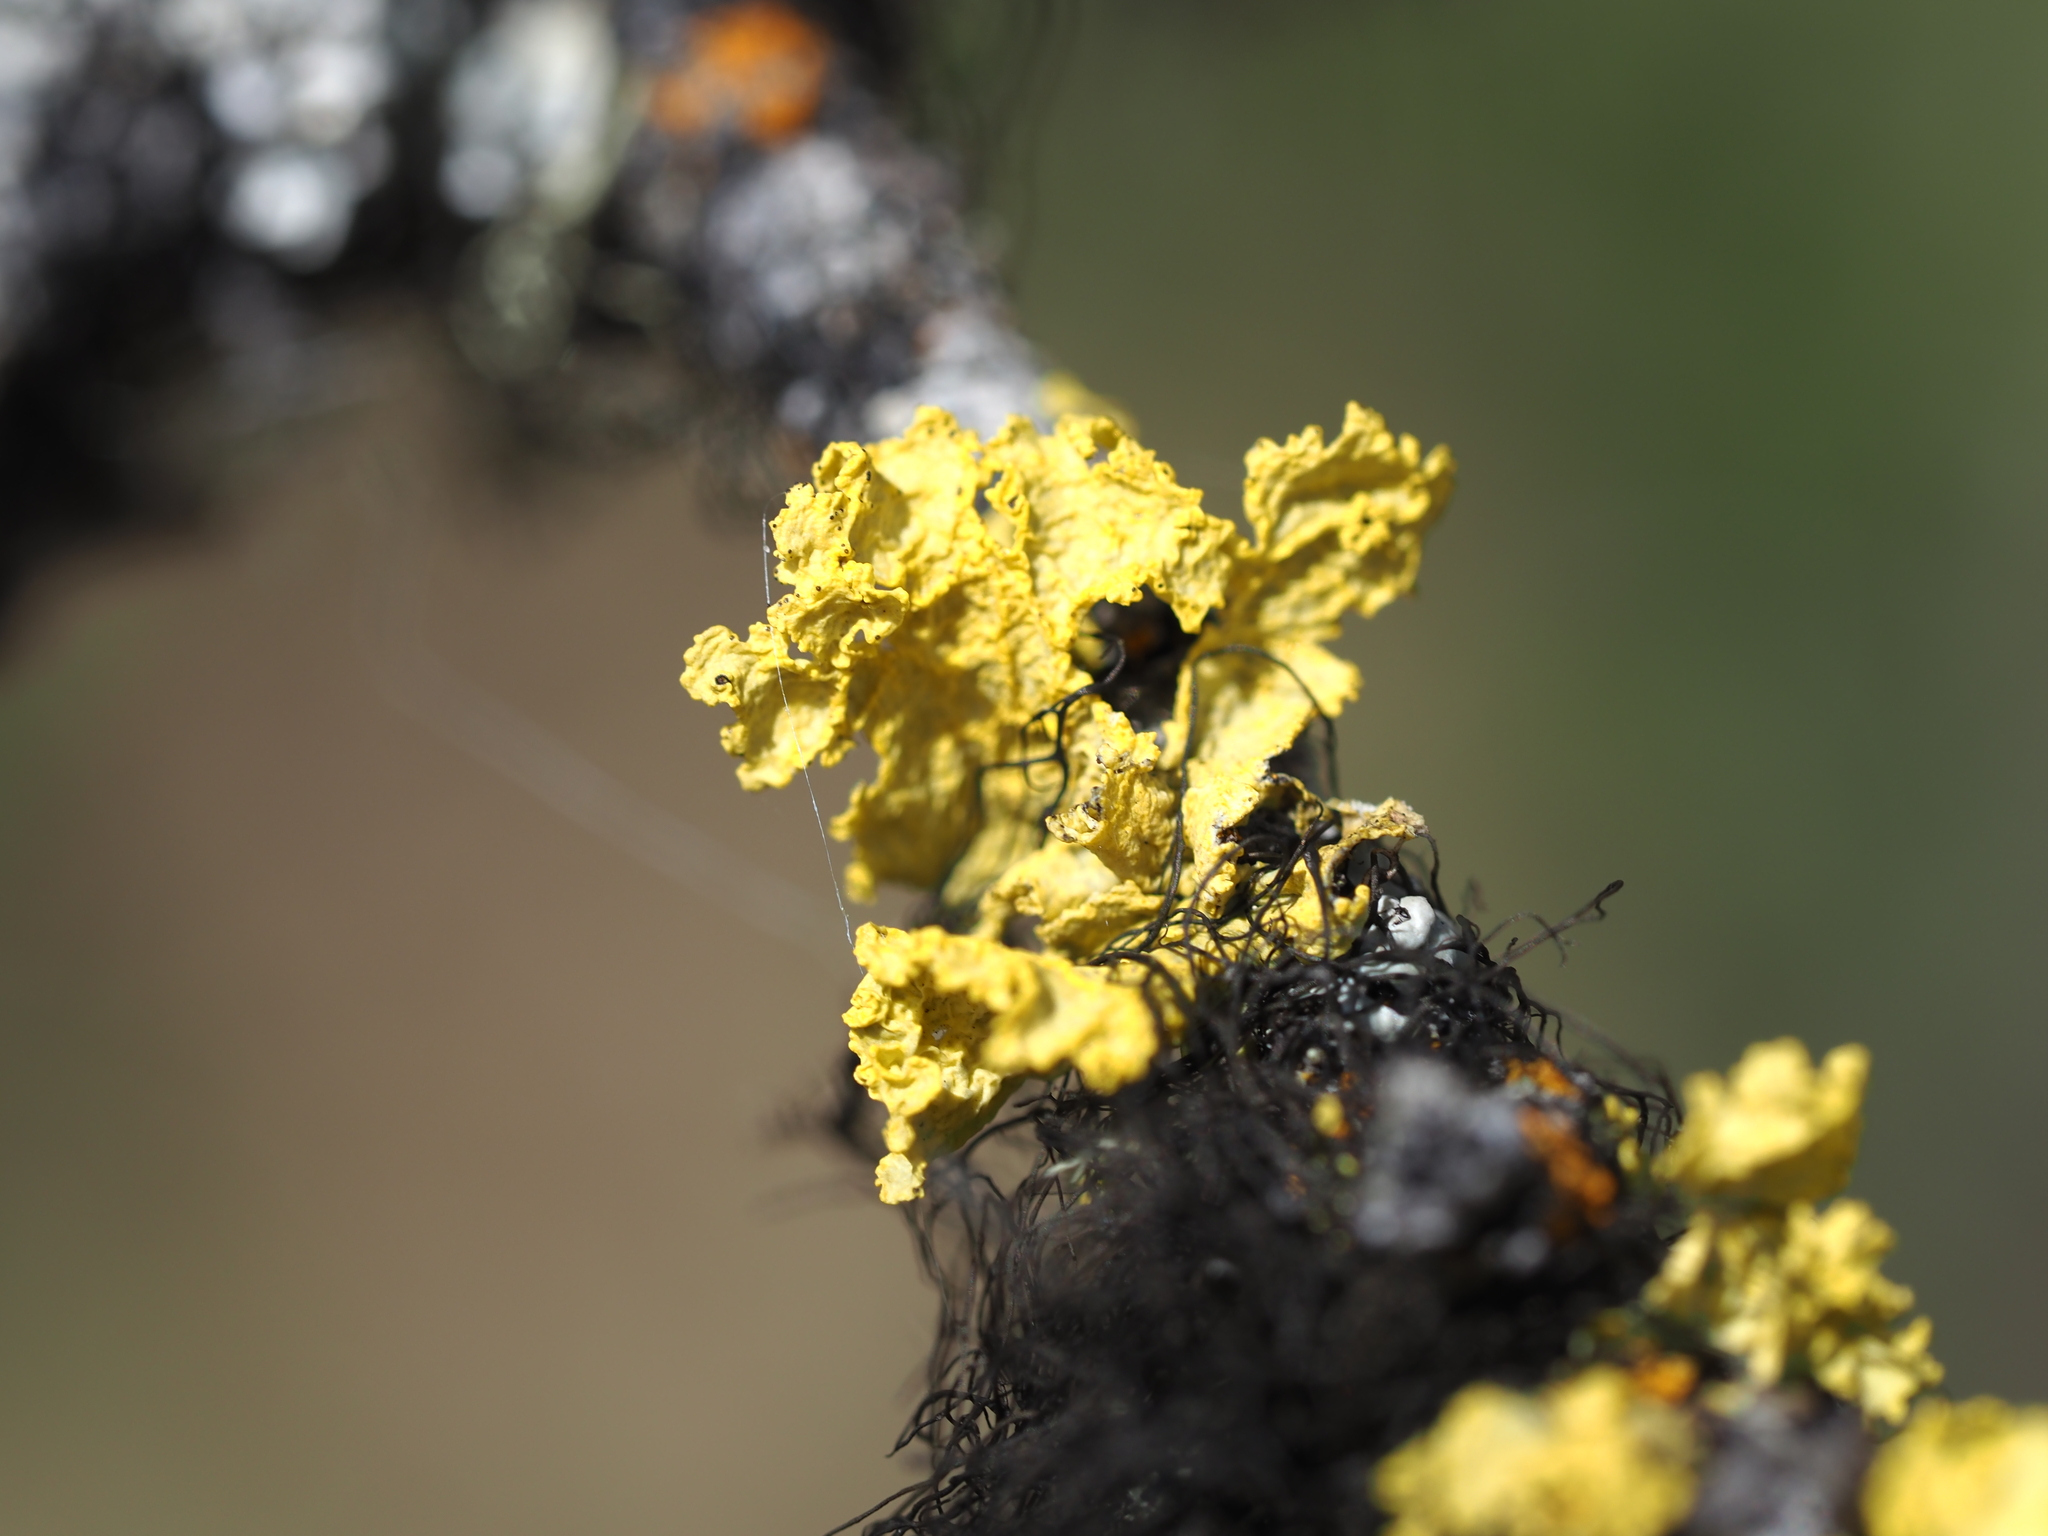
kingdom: Fungi
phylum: Ascomycota
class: Lecanoromycetes
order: Lecanorales
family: Parmeliaceae
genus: Vulpicida
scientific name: Vulpicida canadensis
